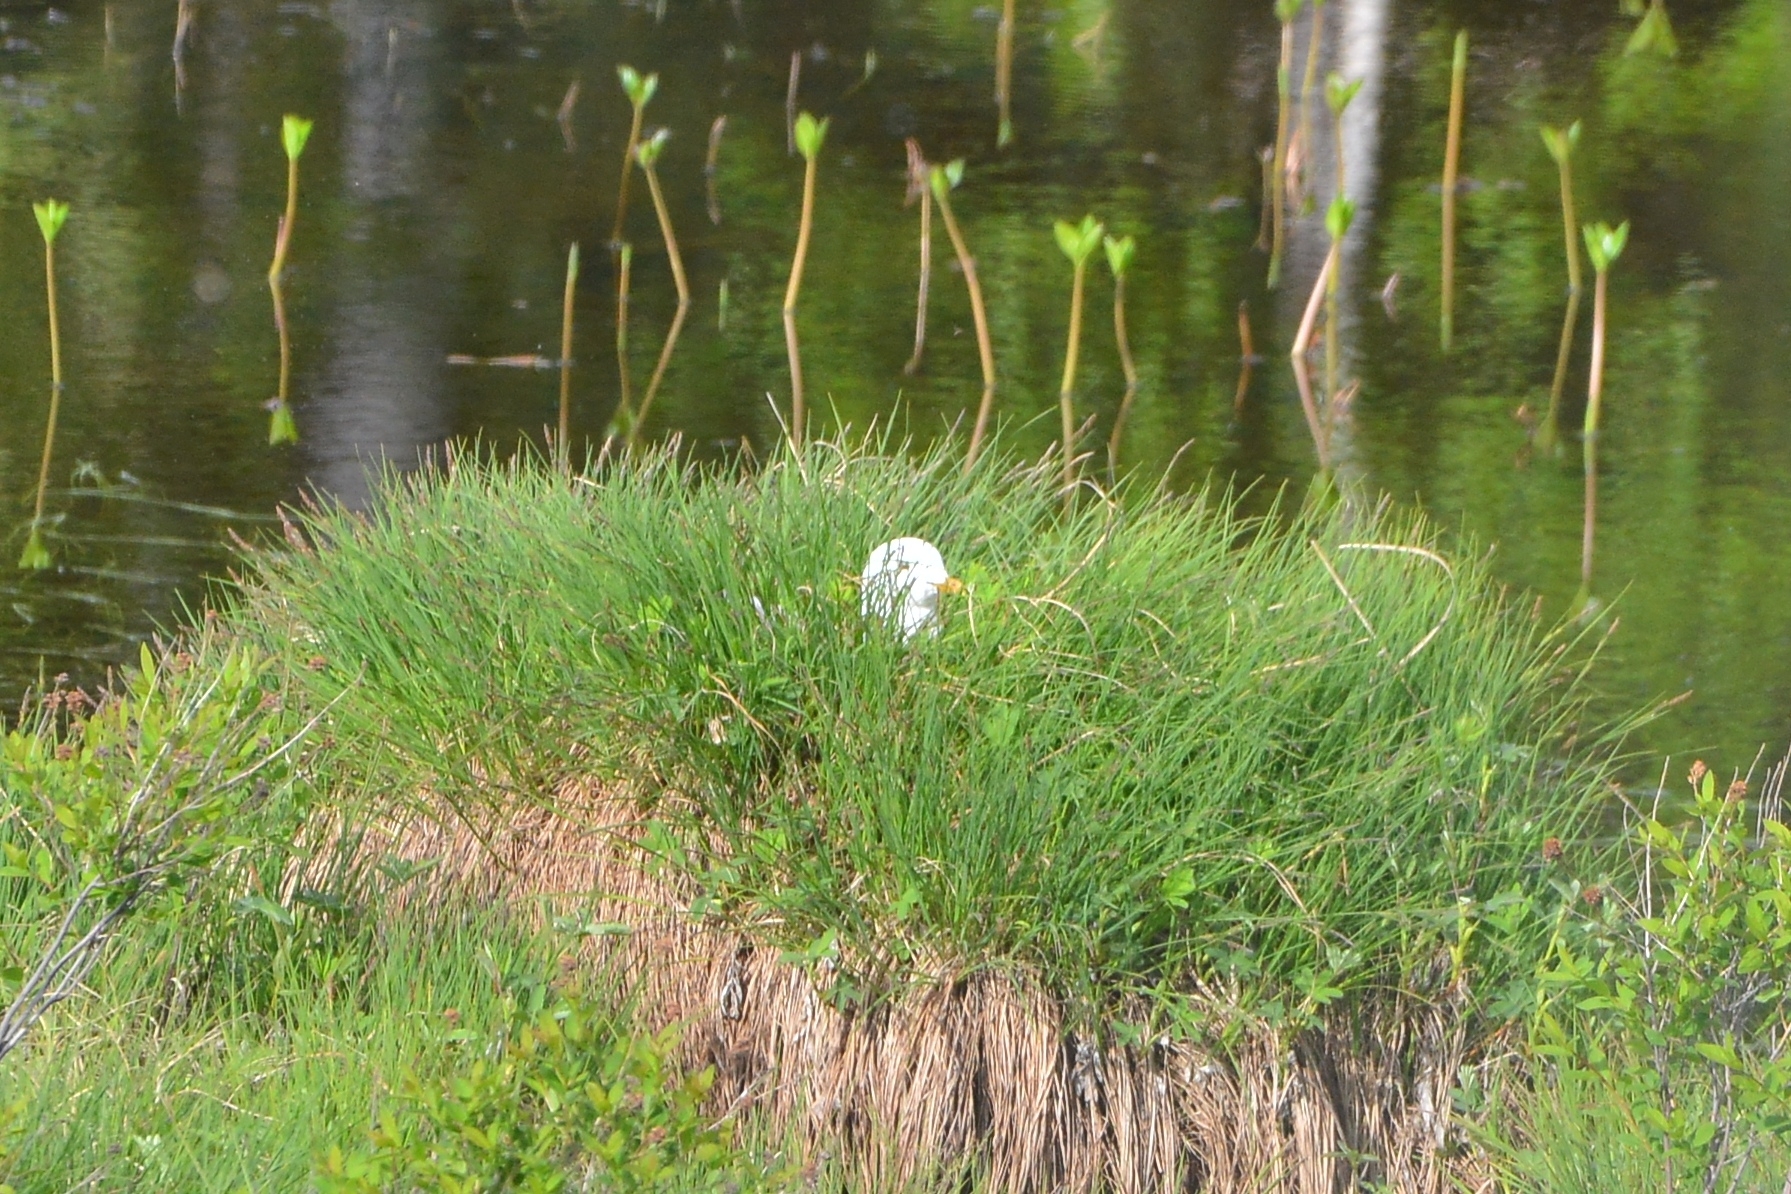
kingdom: Animalia
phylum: Chordata
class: Aves
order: Charadriiformes
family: Laridae
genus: Larus
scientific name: Larus canus
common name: Mew gull
